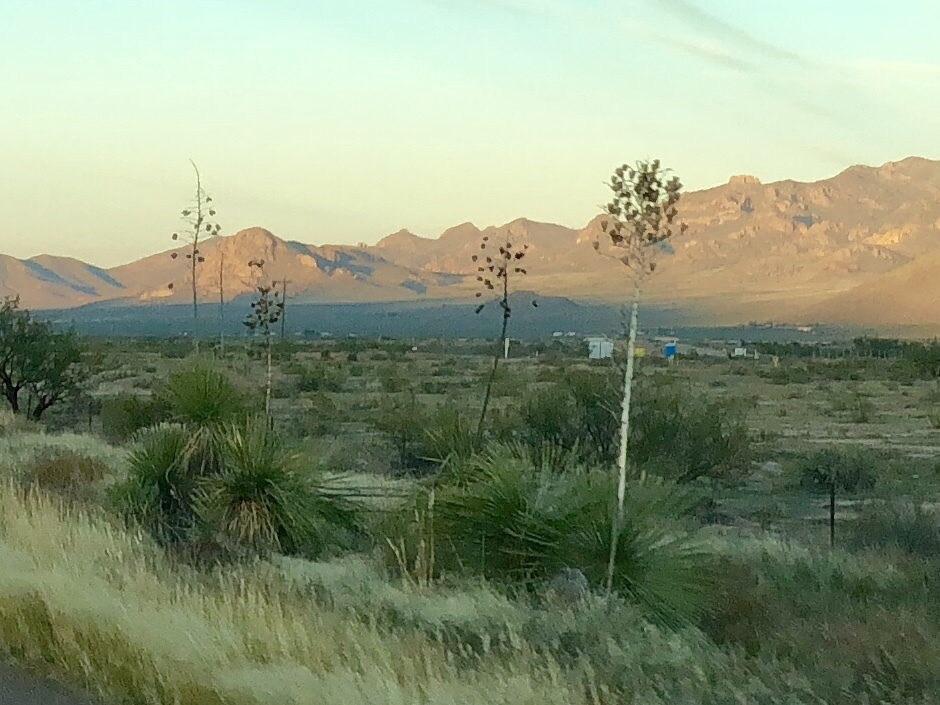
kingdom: Plantae
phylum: Tracheophyta
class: Liliopsida
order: Asparagales
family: Asparagaceae
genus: Yucca
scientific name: Yucca elata
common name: Palmella
